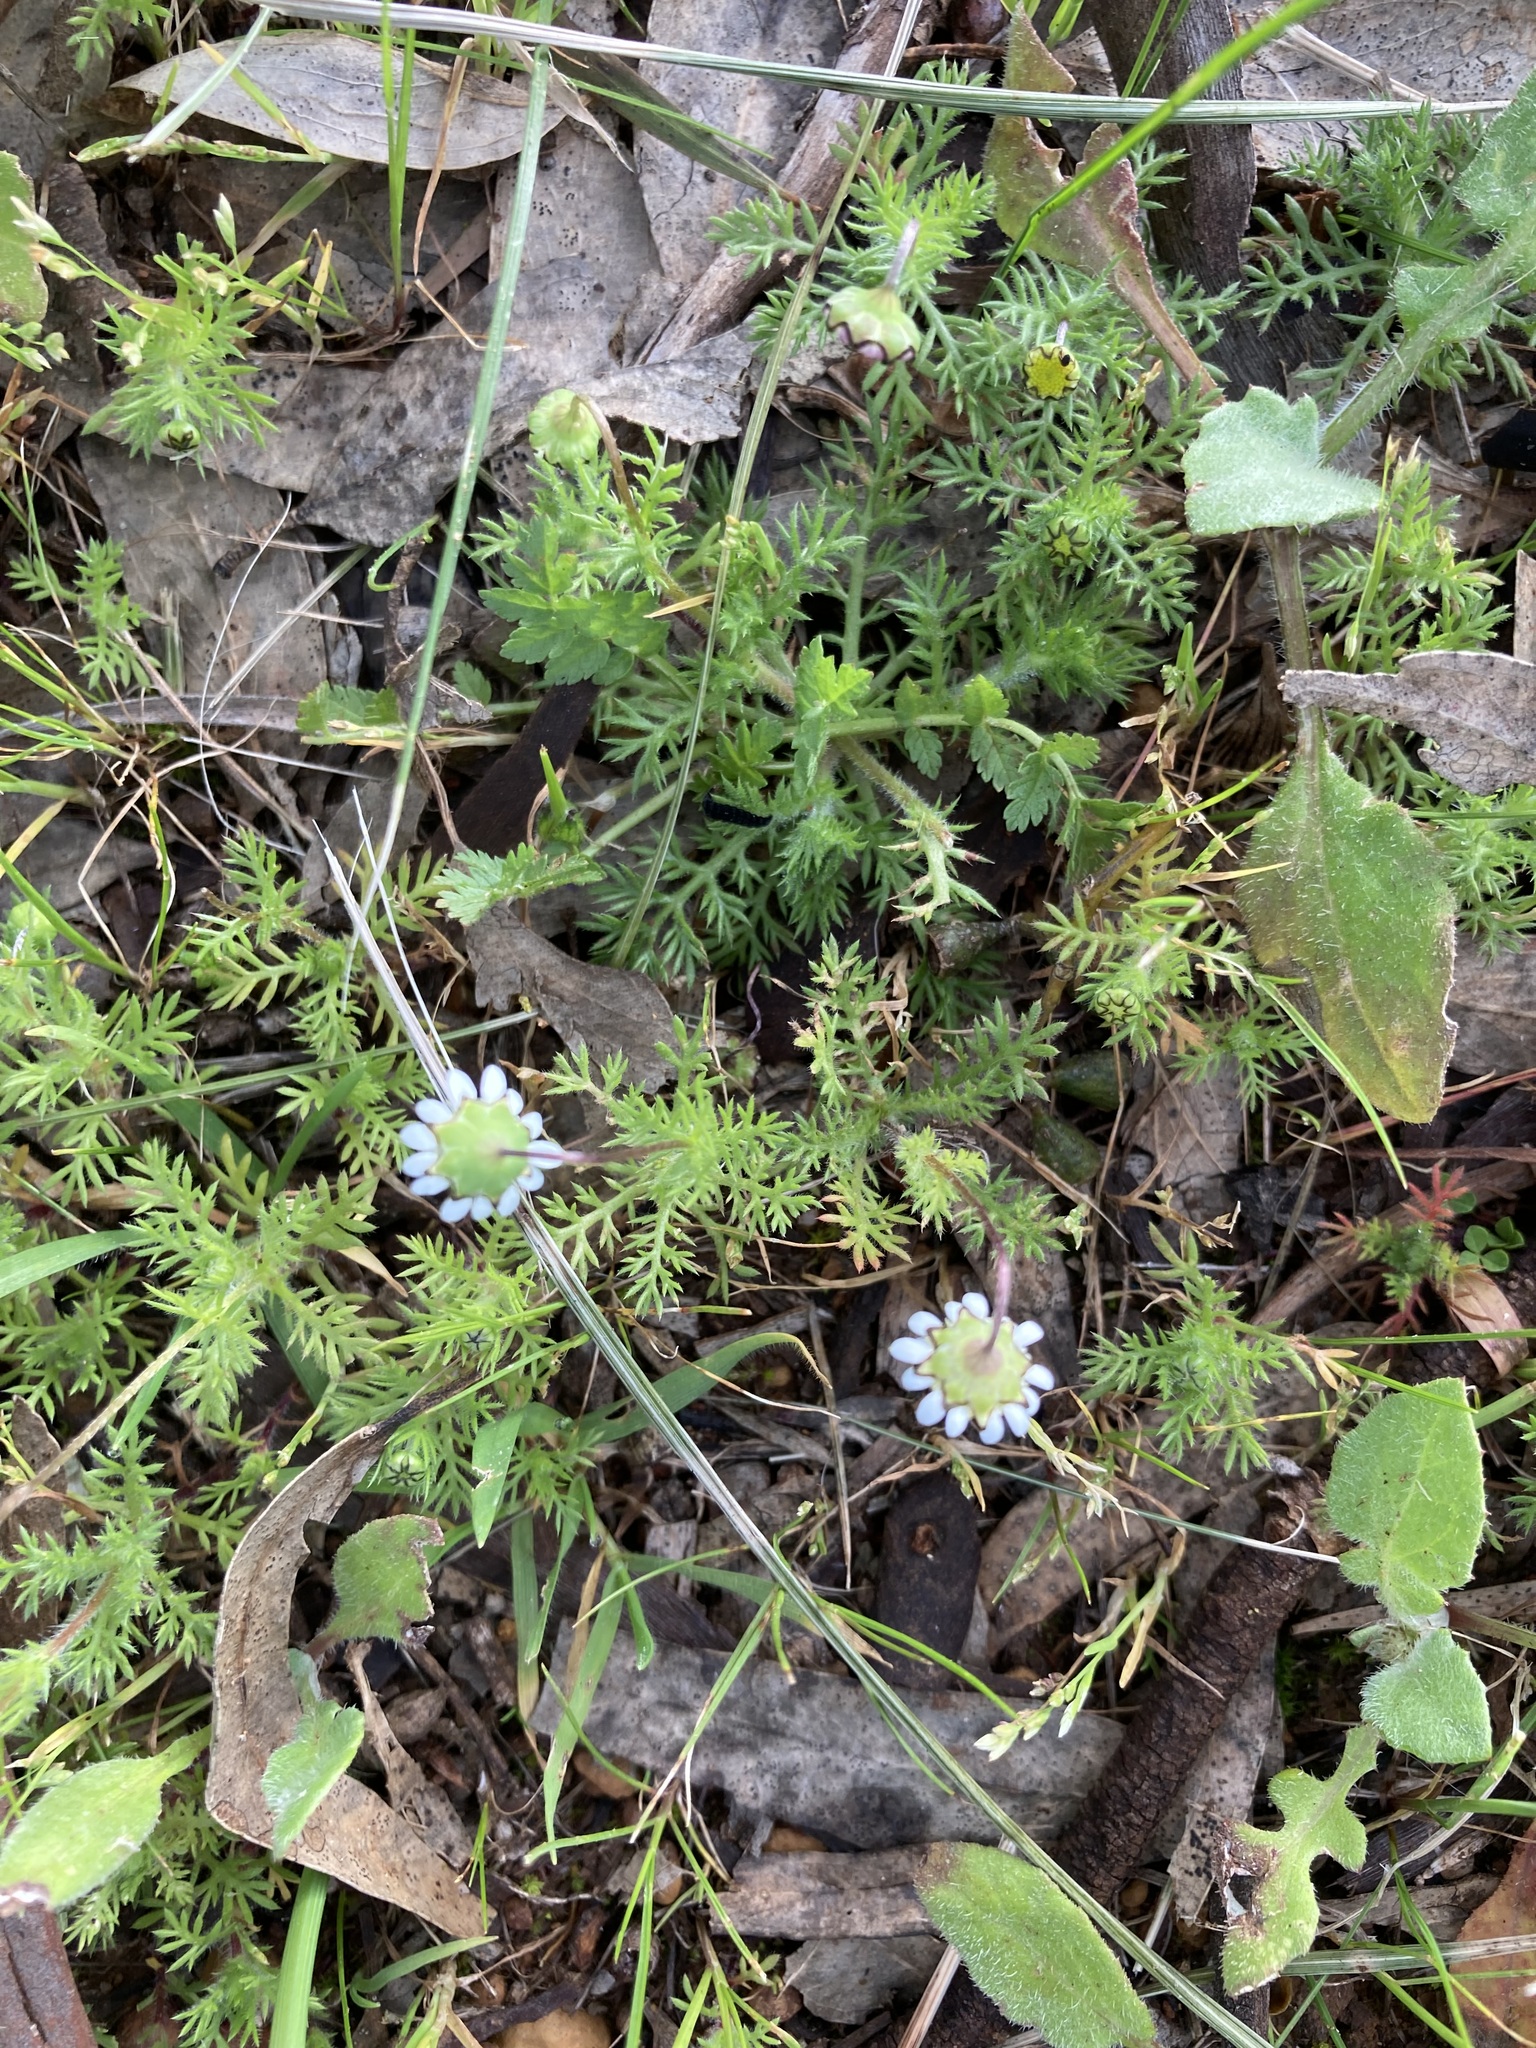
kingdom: Plantae
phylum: Tracheophyta
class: Magnoliopsida
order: Asterales
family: Asteraceae
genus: Cotula
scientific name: Cotula turbinata
